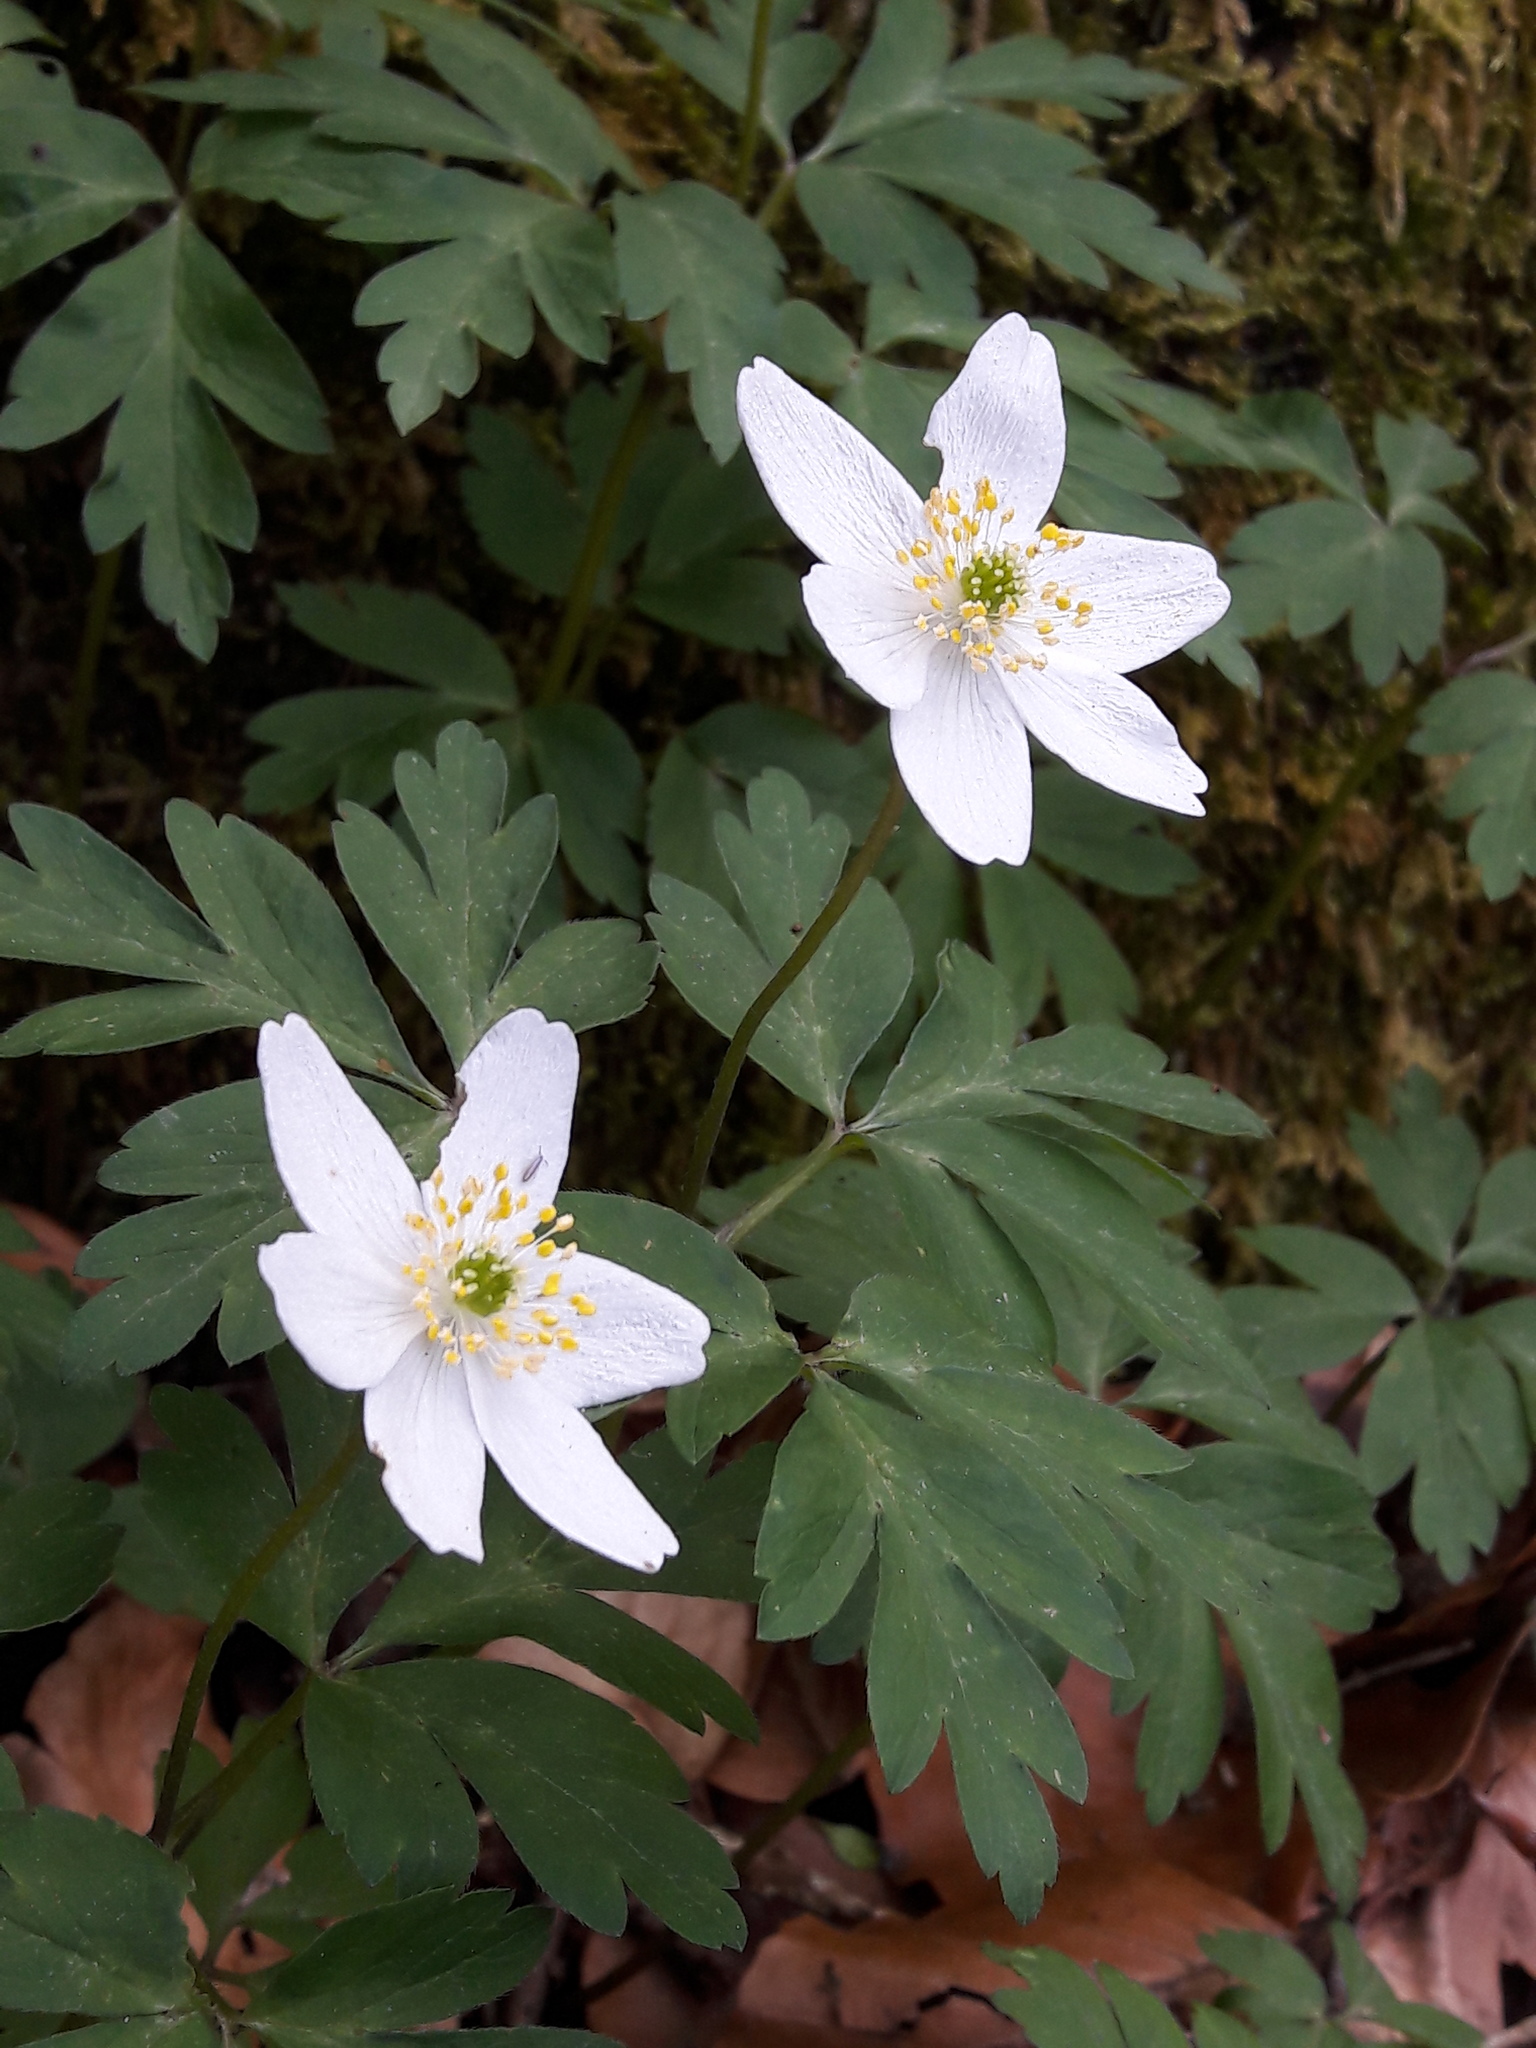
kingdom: Plantae
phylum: Tracheophyta
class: Magnoliopsida
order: Ranunculales
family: Ranunculaceae
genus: Anemone
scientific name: Anemone nemorosa
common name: Wood anemone
